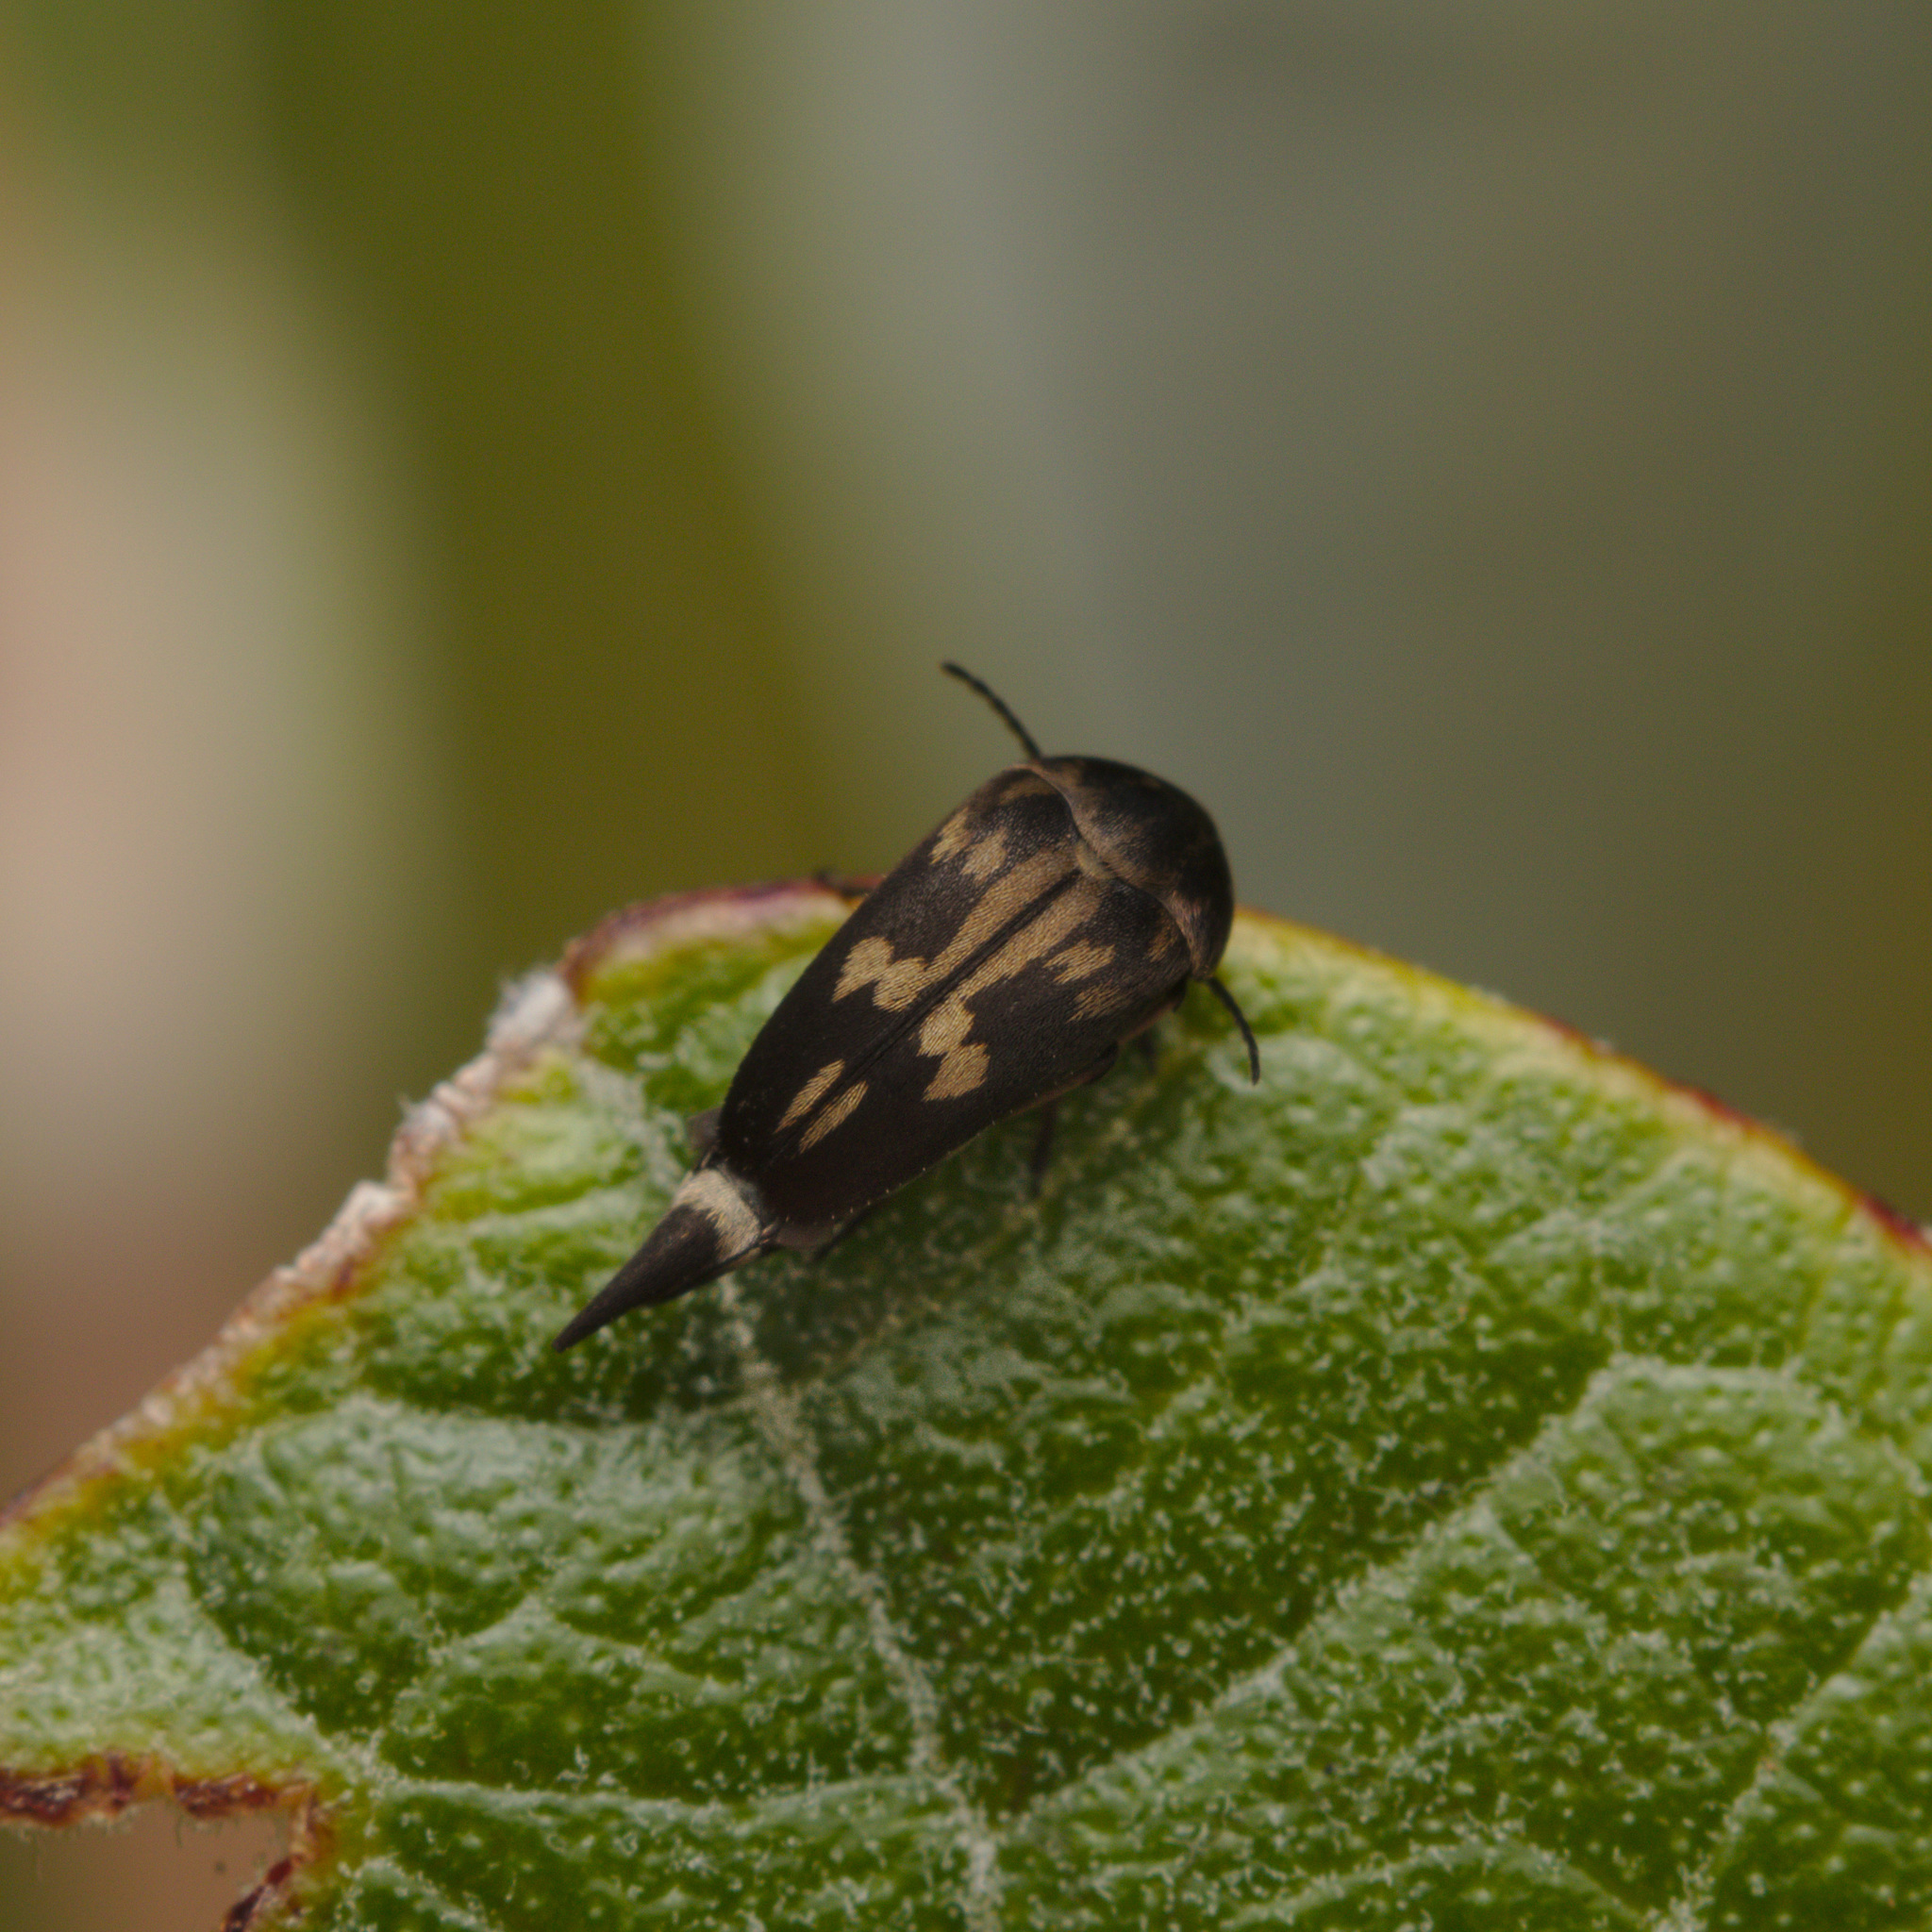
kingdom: Animalia
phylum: Arthropoda
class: Insecta
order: Coleoptera
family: Mordellidae
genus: Zeamordella
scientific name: Zeamordella monacha
